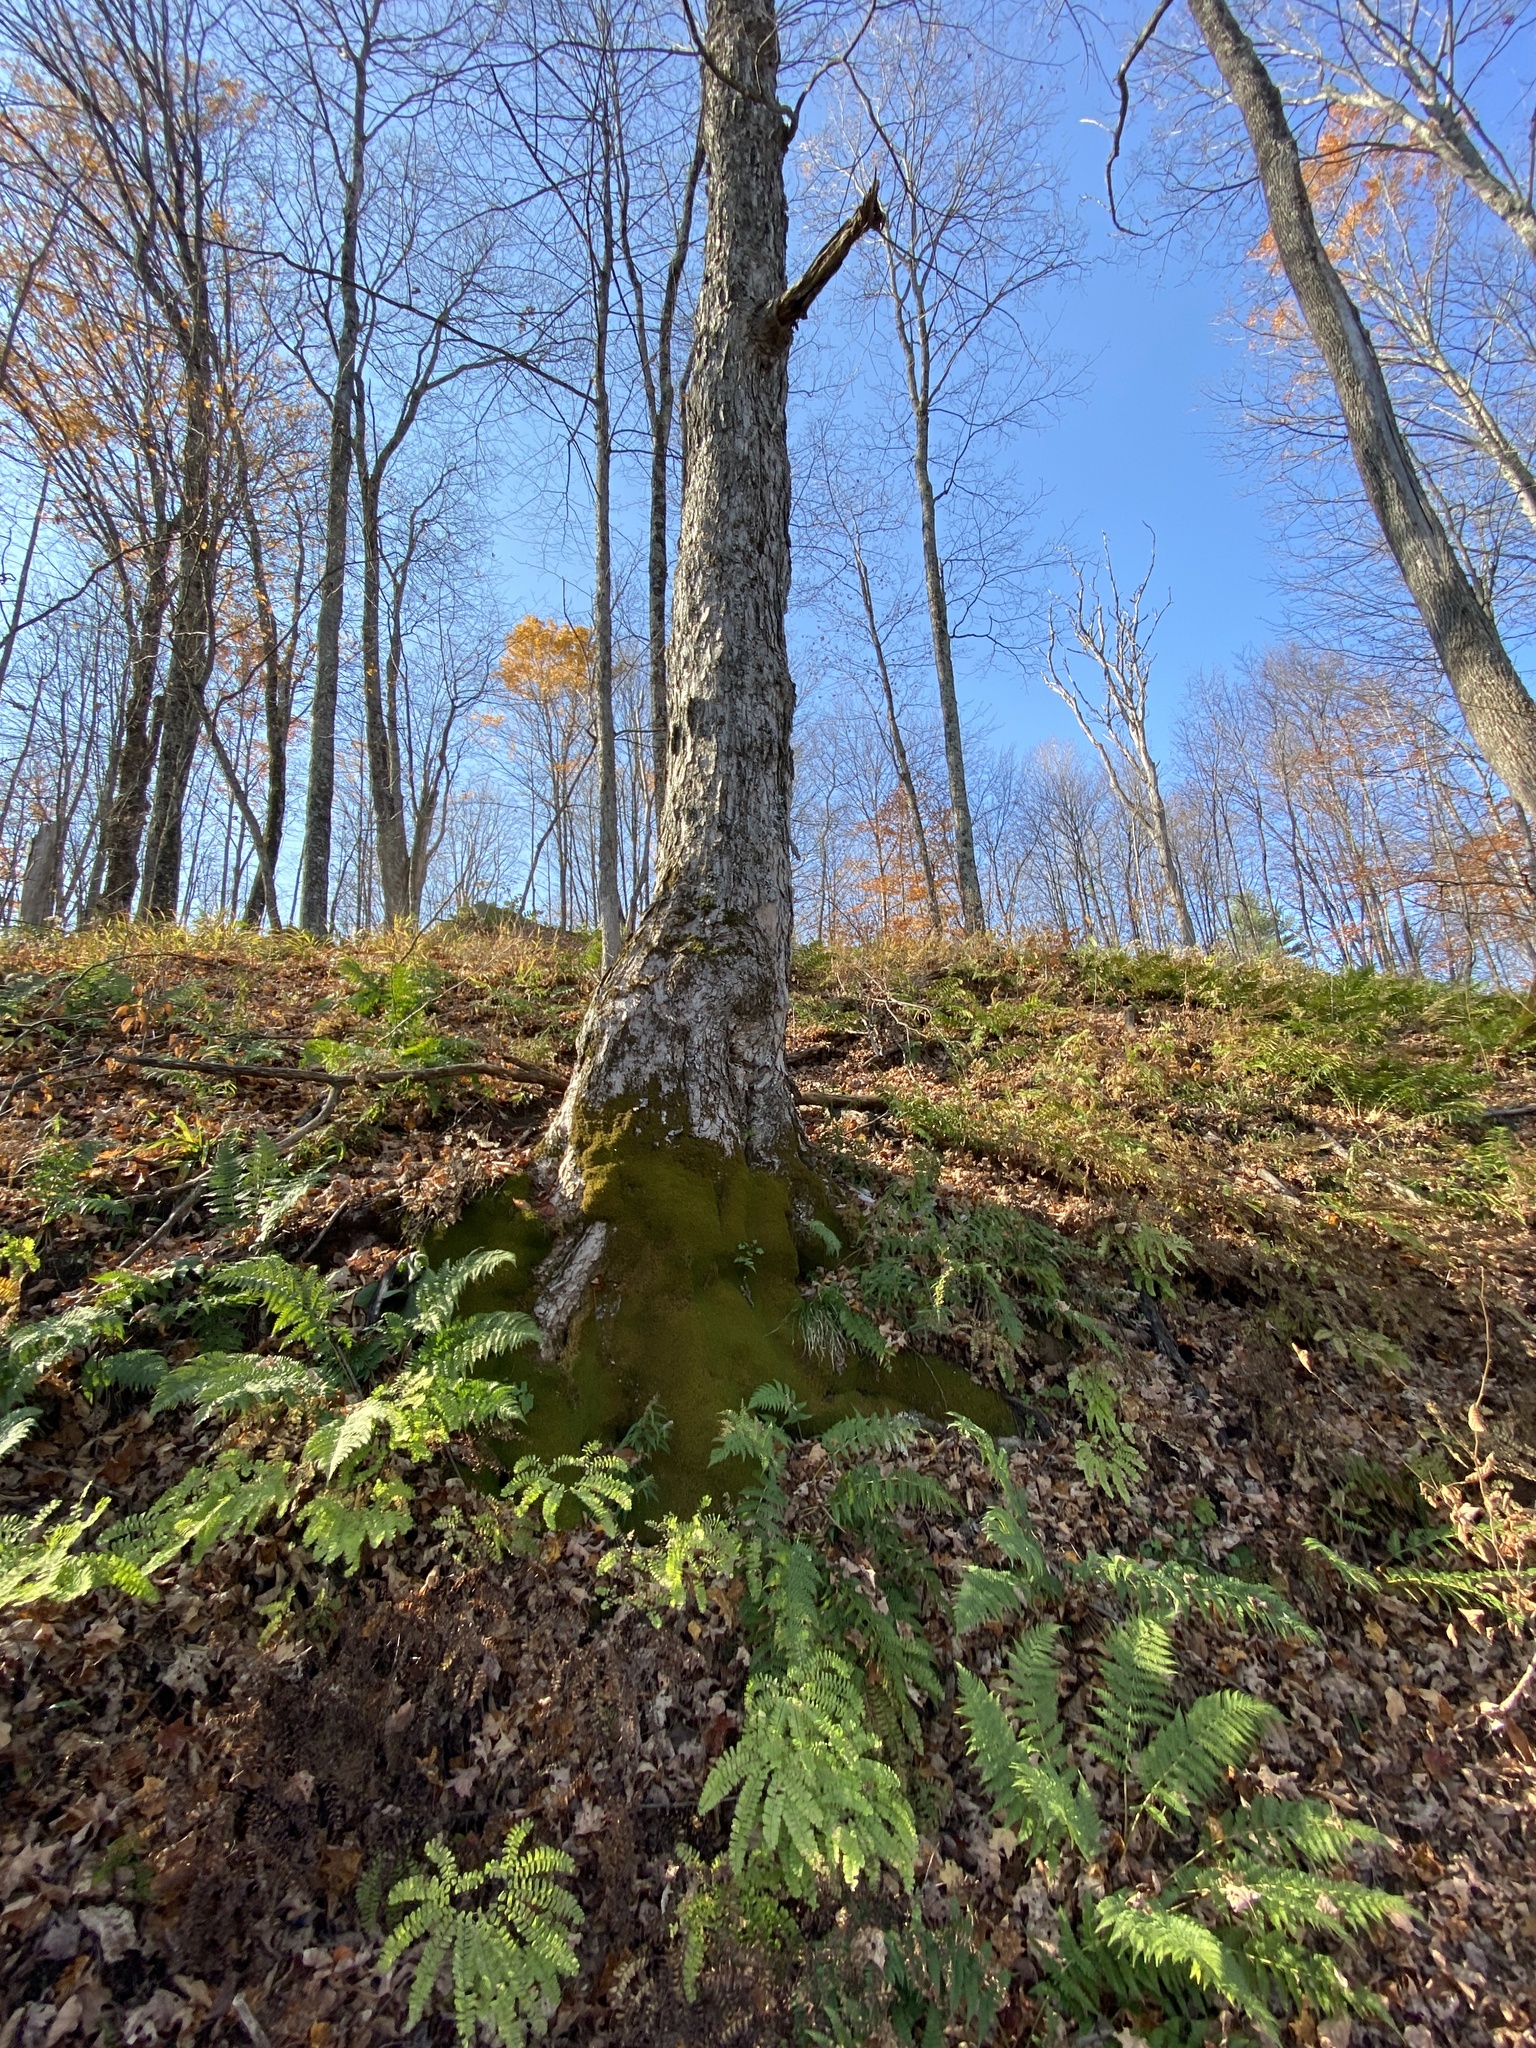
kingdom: Plantae
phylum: Tracheophyta
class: Magnoliopsida
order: Sapindales
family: Sapindaceae
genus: Acer
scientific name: Acer saccharum
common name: Sugar maple
